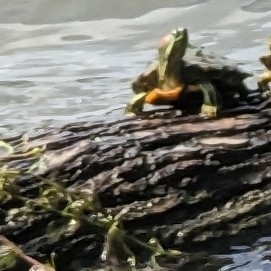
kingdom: Animalia
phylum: Chordata
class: Testudines
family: Emydidae
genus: Trachemys
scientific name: Trachemys scripta
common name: Slider
